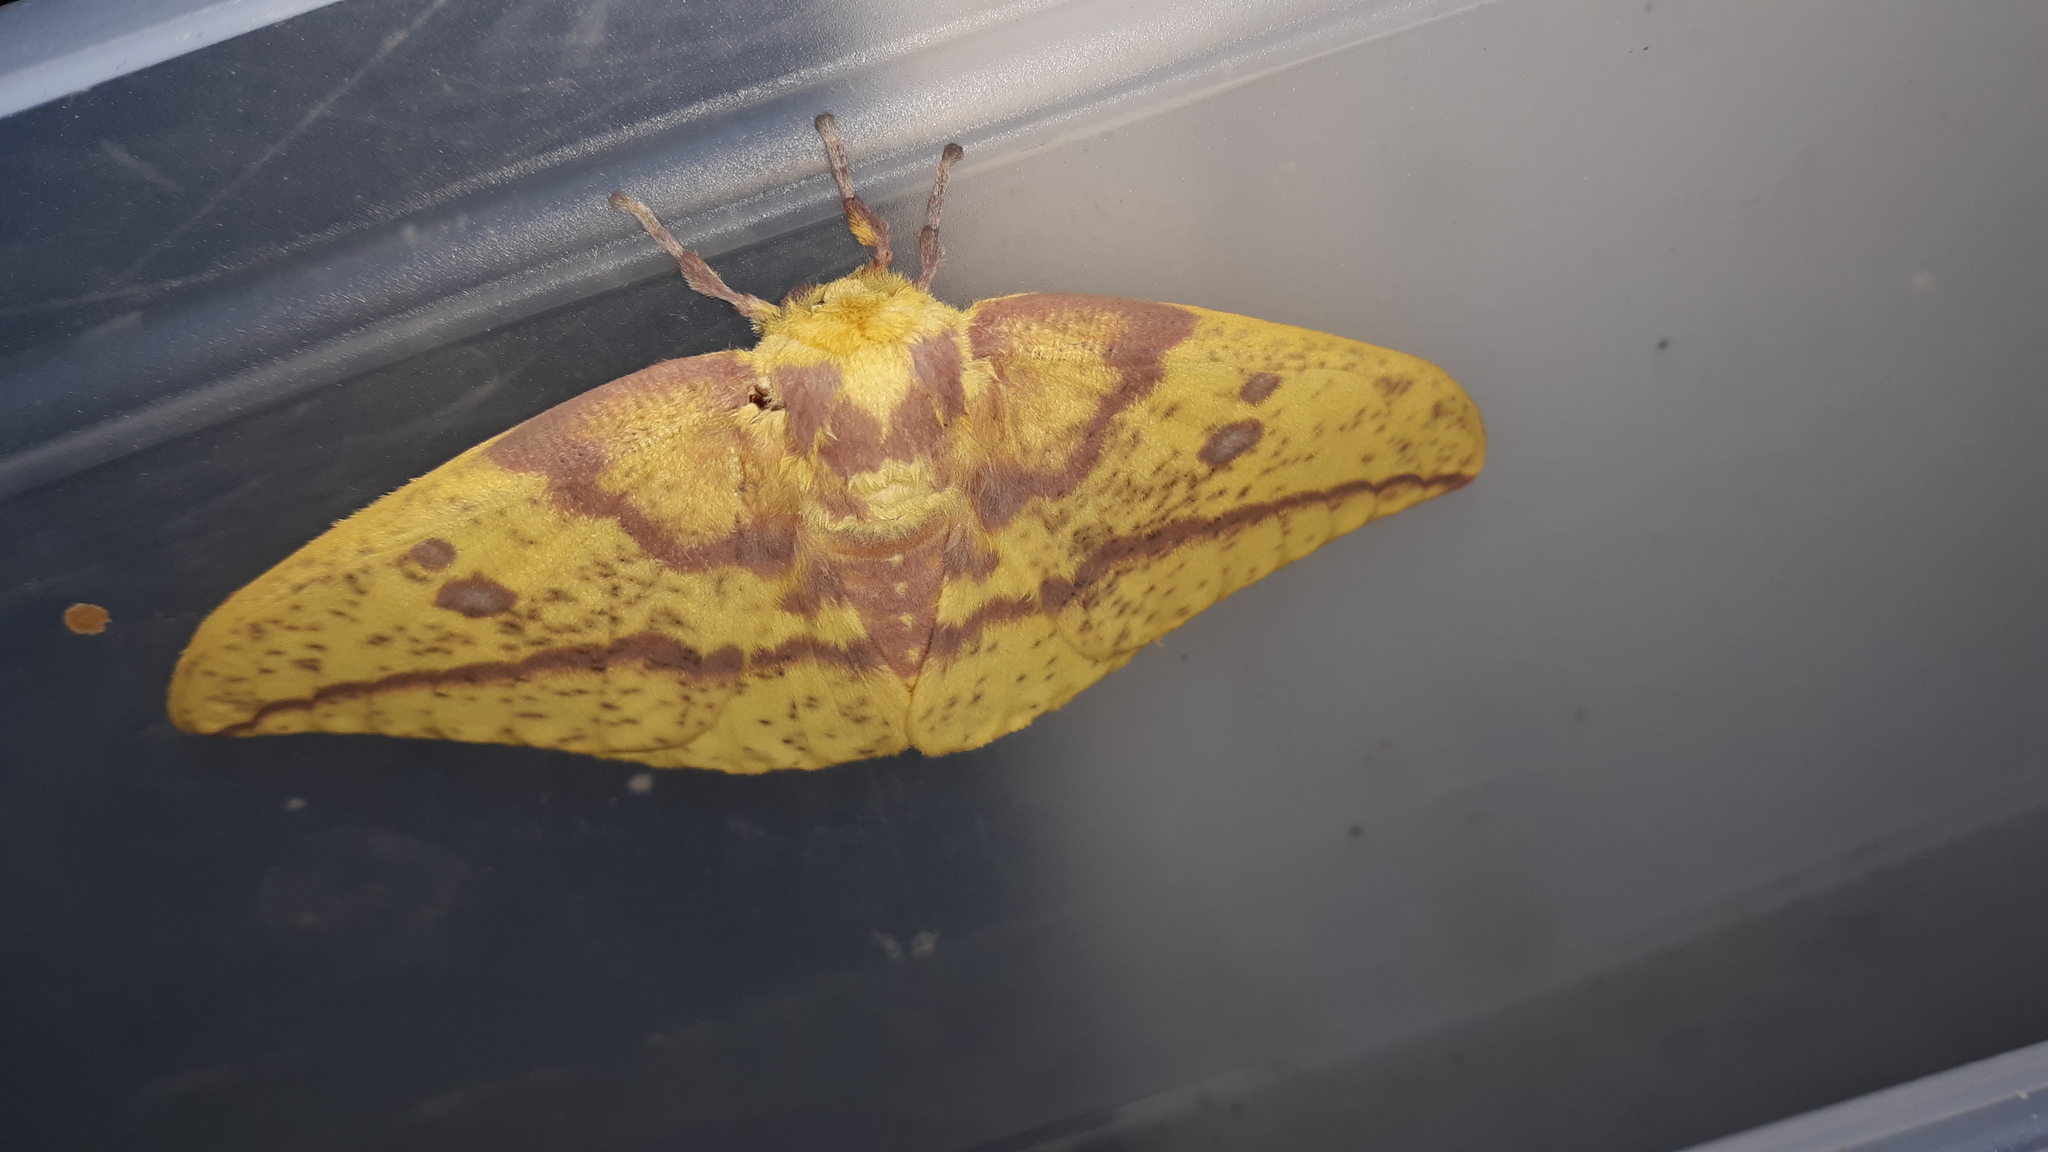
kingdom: Animalia
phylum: Arthropoda
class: Insecta
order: Lepidoptera
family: Saturniidae
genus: Eacles
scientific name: Eacles imperialis
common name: Imperial moth
